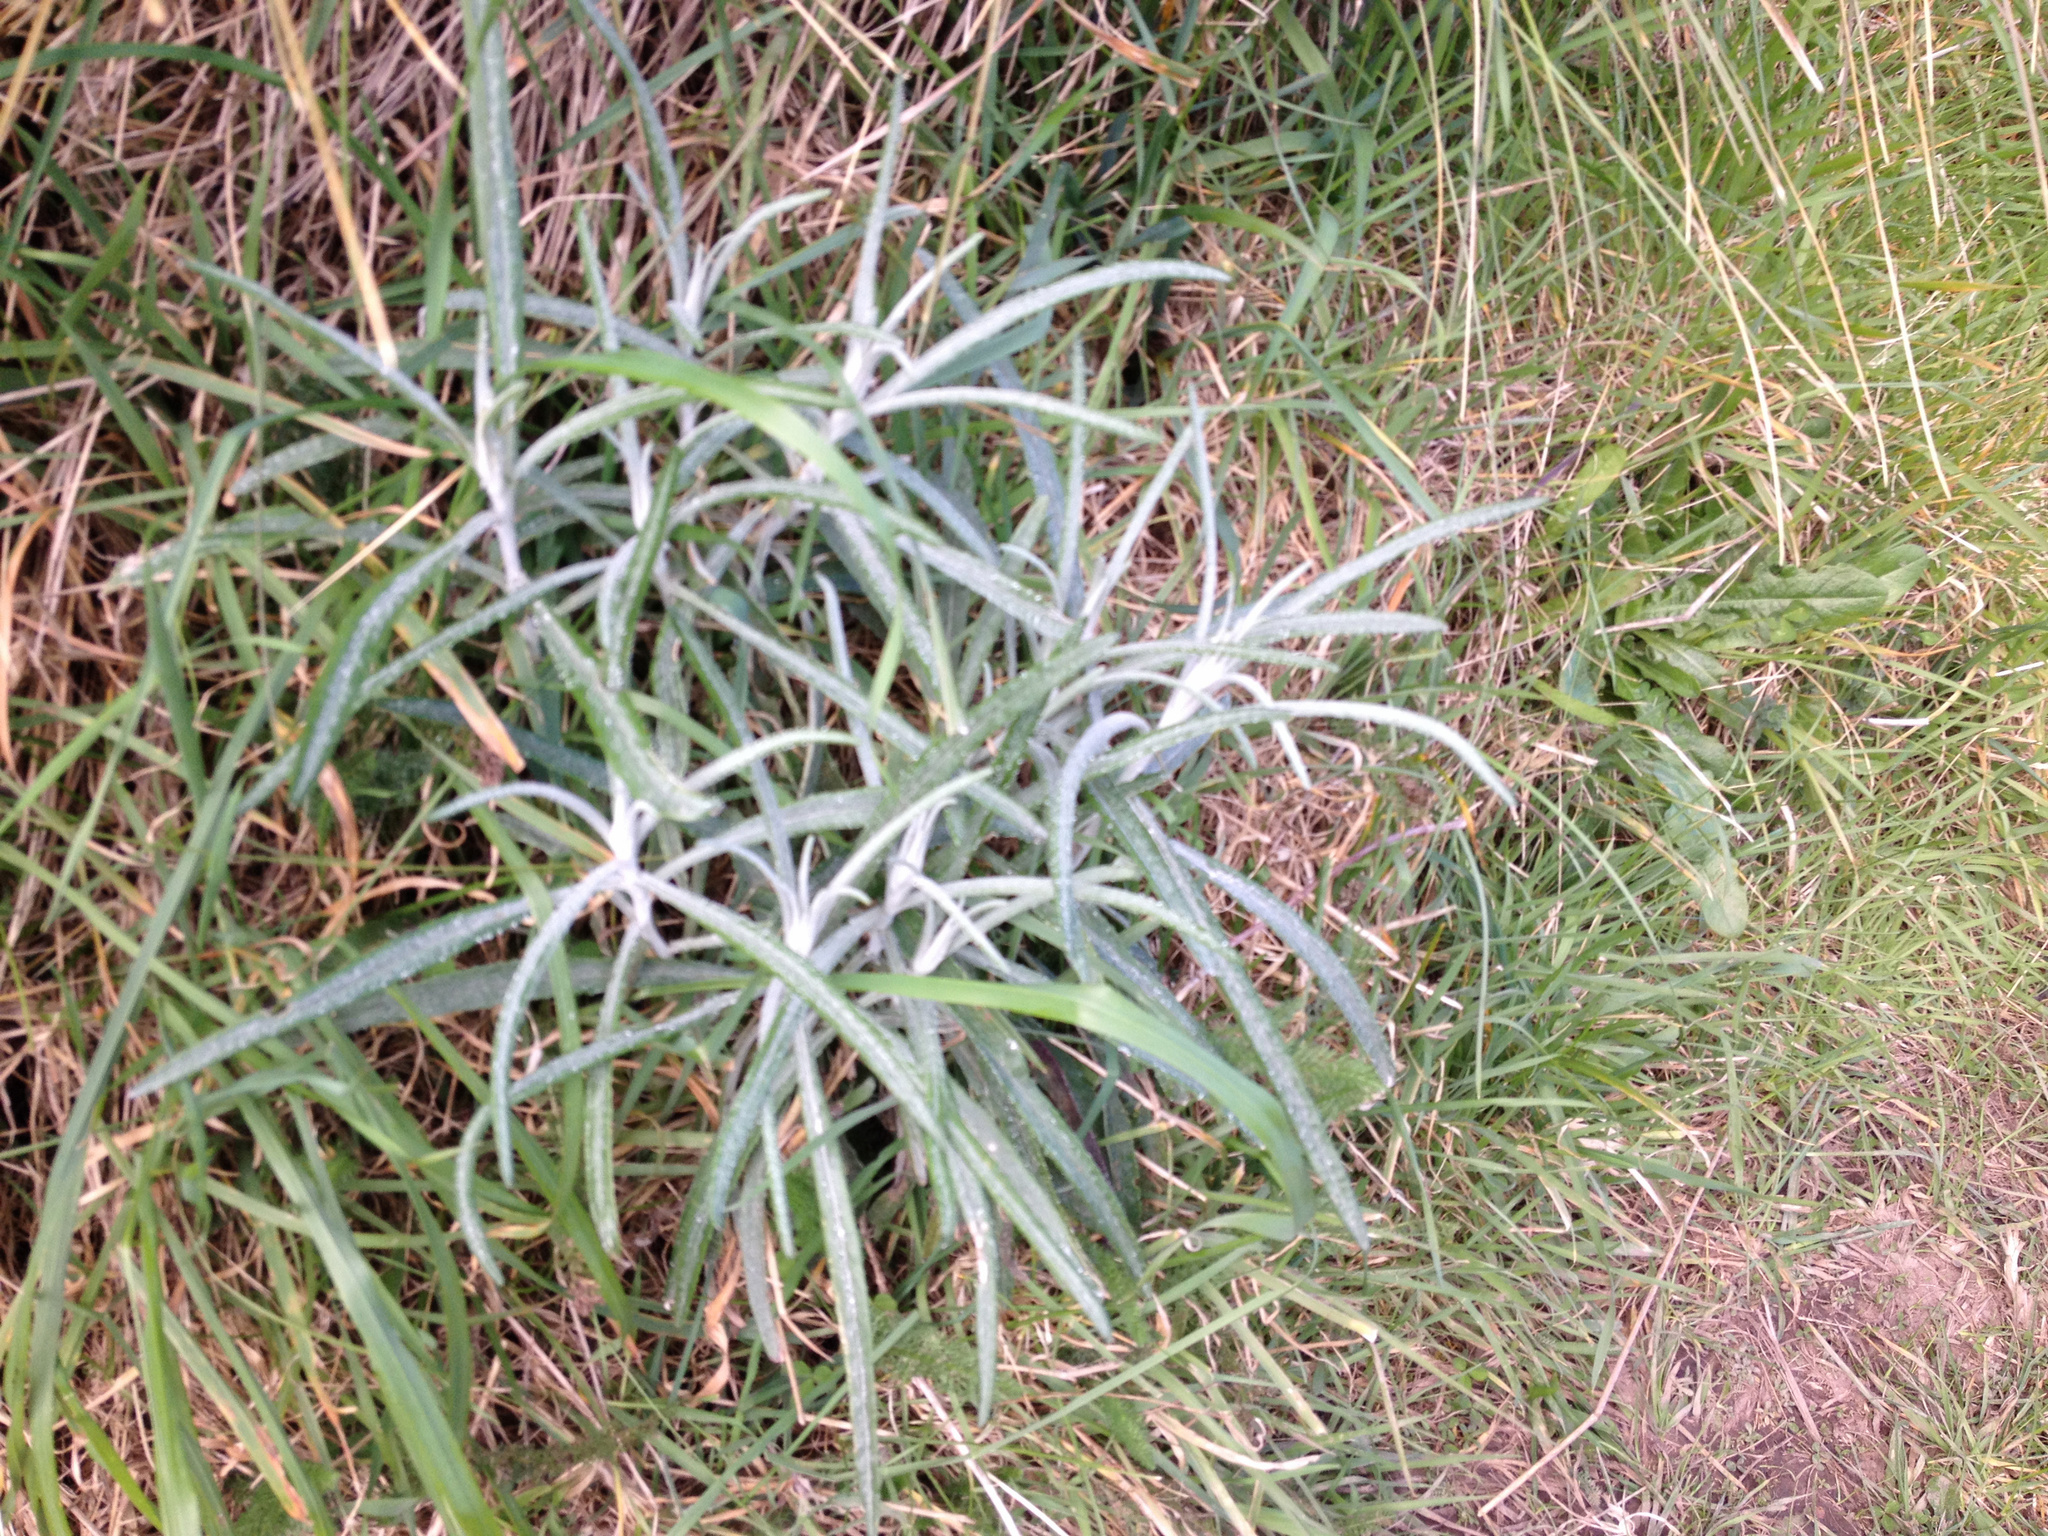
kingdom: Plantae
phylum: Tracheophyta
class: Magnoliopsida
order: Asterales
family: Asteraceae
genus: Senecio
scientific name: Senecio quadridentatus
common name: Cotton fireweed
